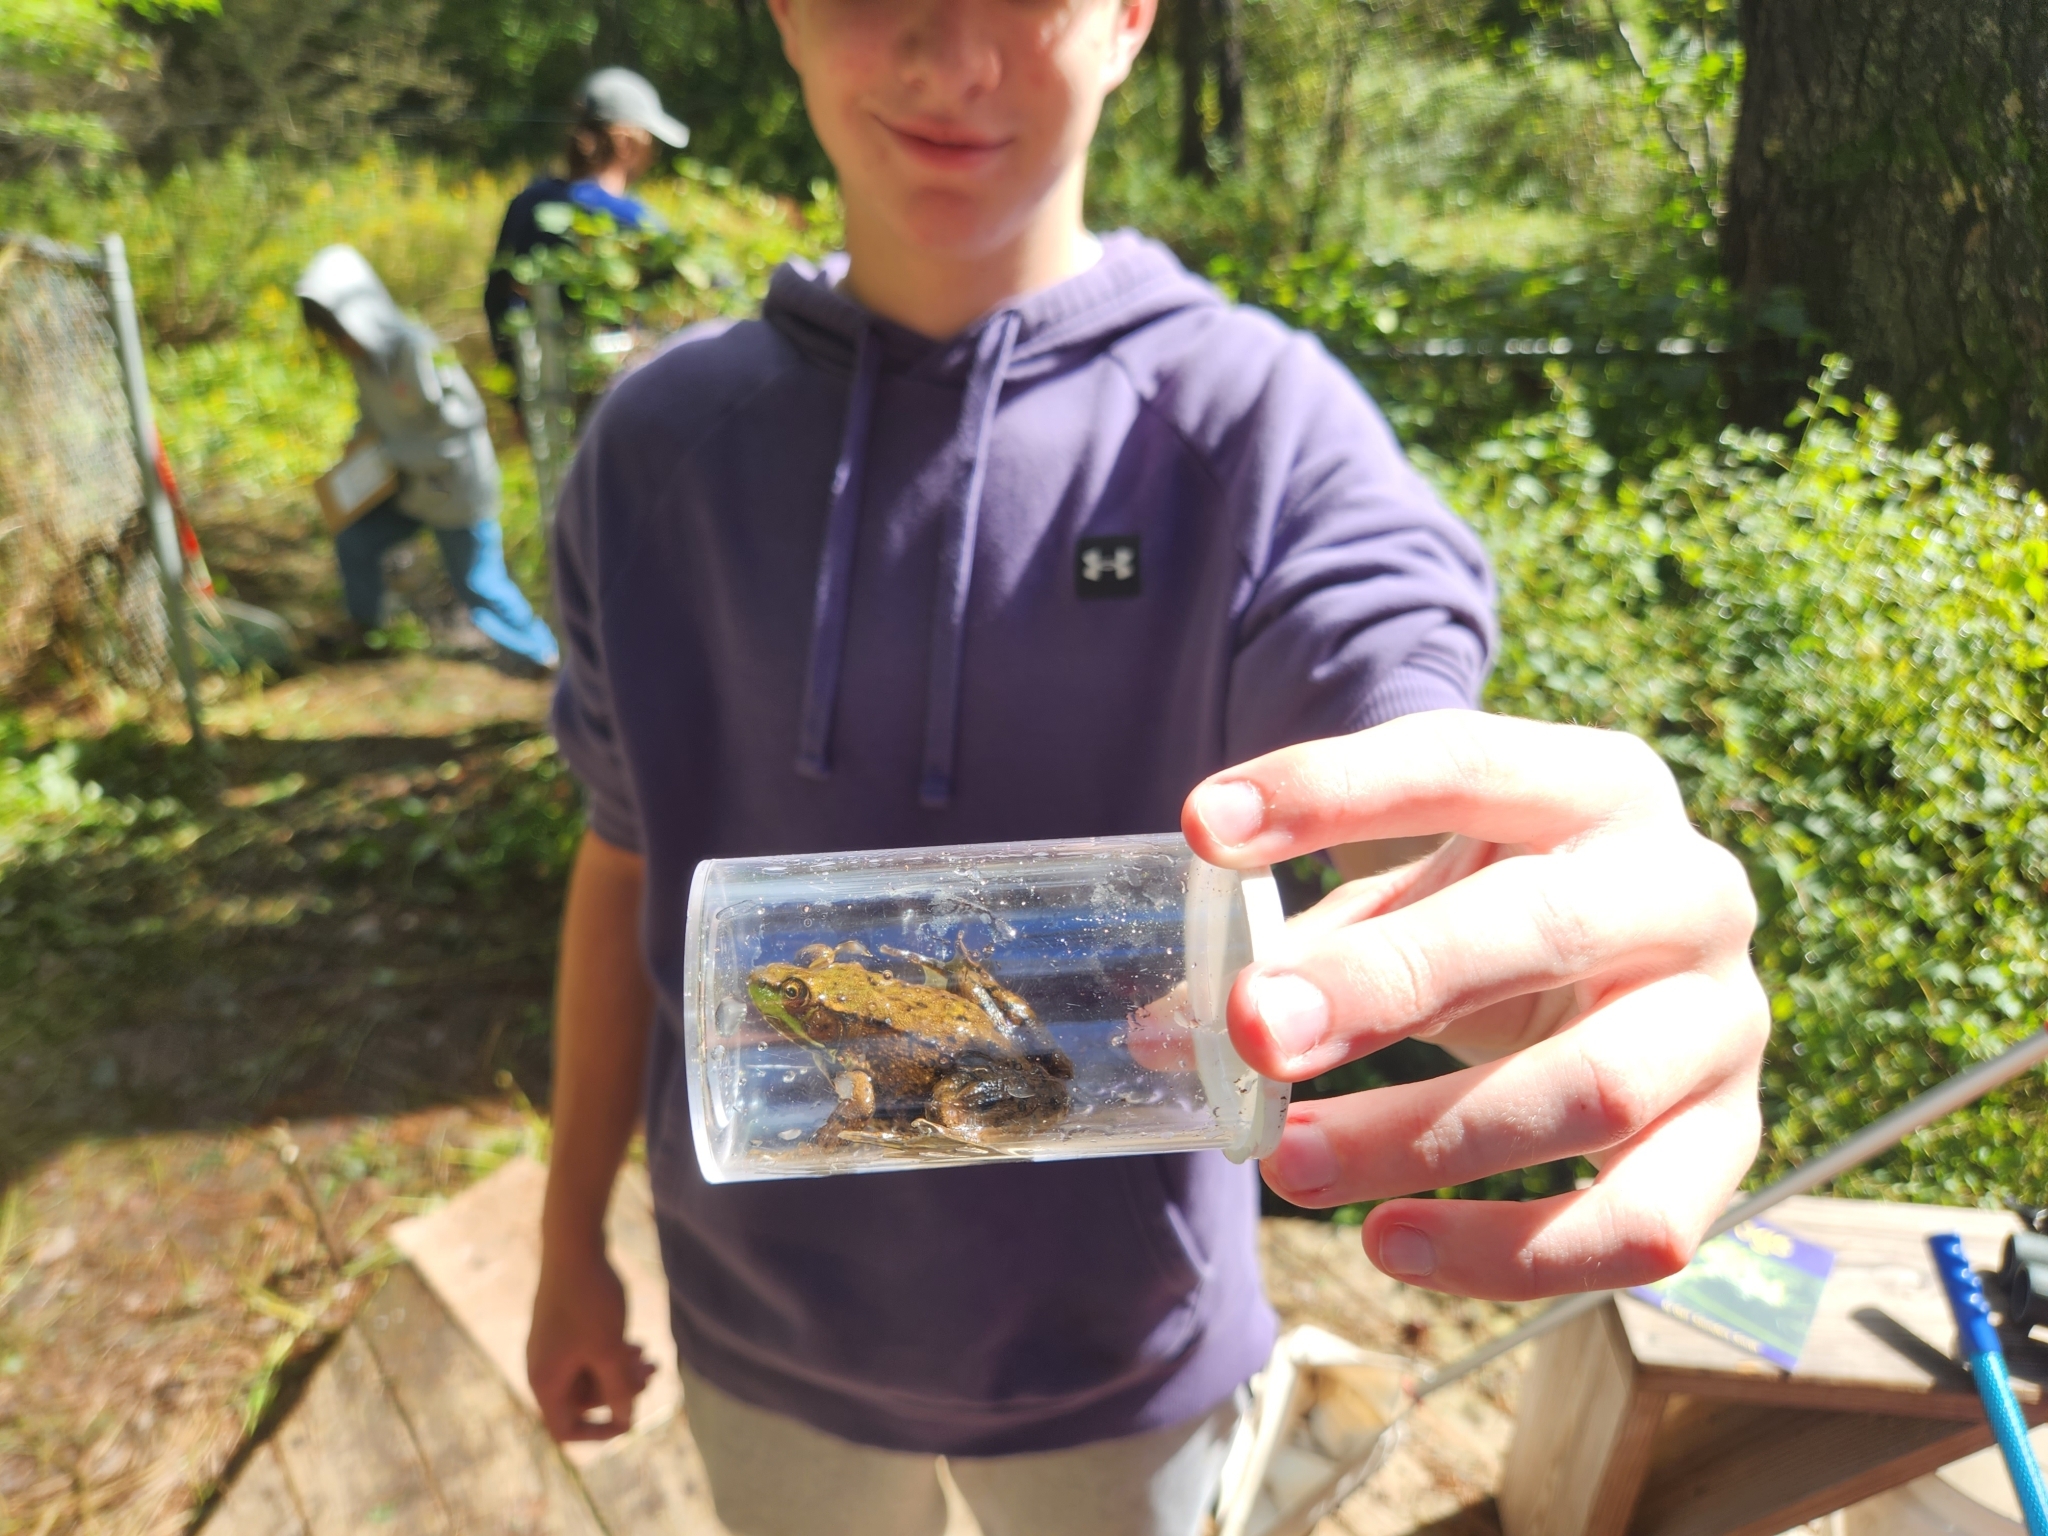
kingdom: Animalia
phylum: Chordata
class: Amphibia
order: Anura
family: Ranidae
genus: Lithobates
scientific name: Lithobates clamitans
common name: Green frog
